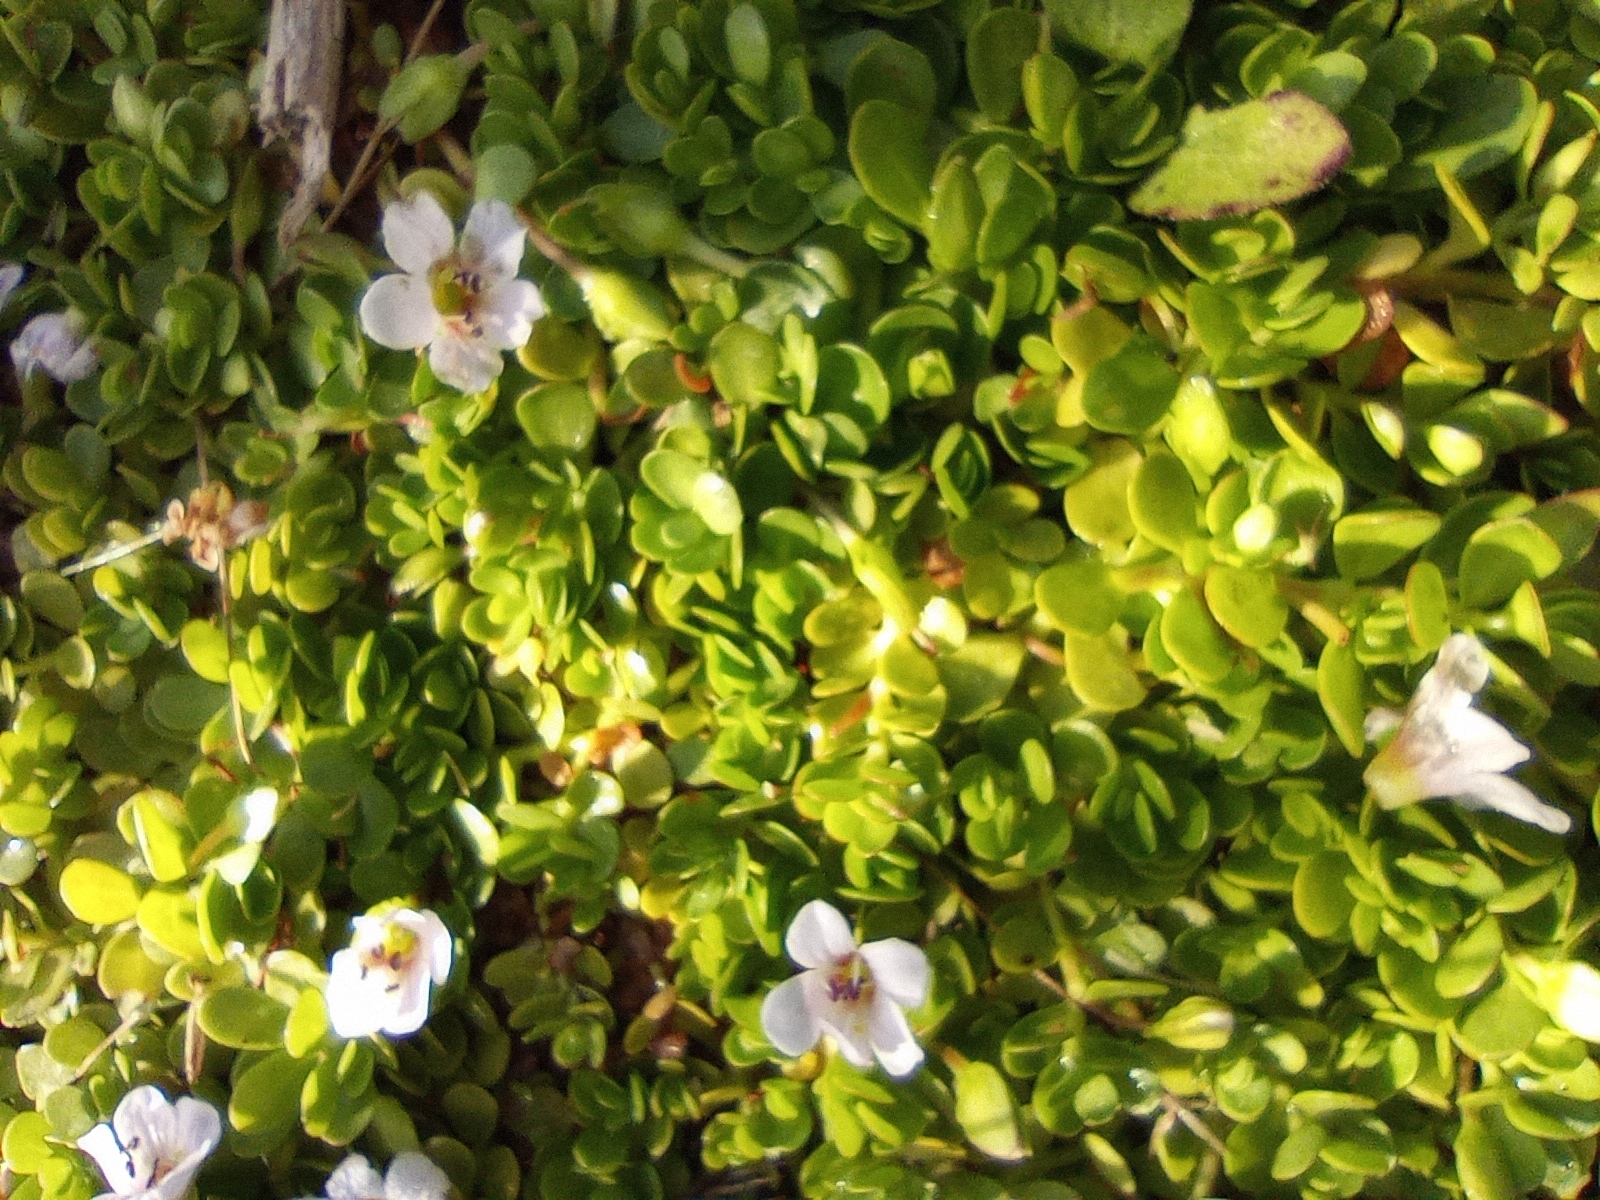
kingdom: Plantae
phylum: Tracheophyta
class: Magnoliopsida
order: Lamiales
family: Plantaginaceae
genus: Bacopa
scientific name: Bacopa monnieri
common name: Indian-pennywort
